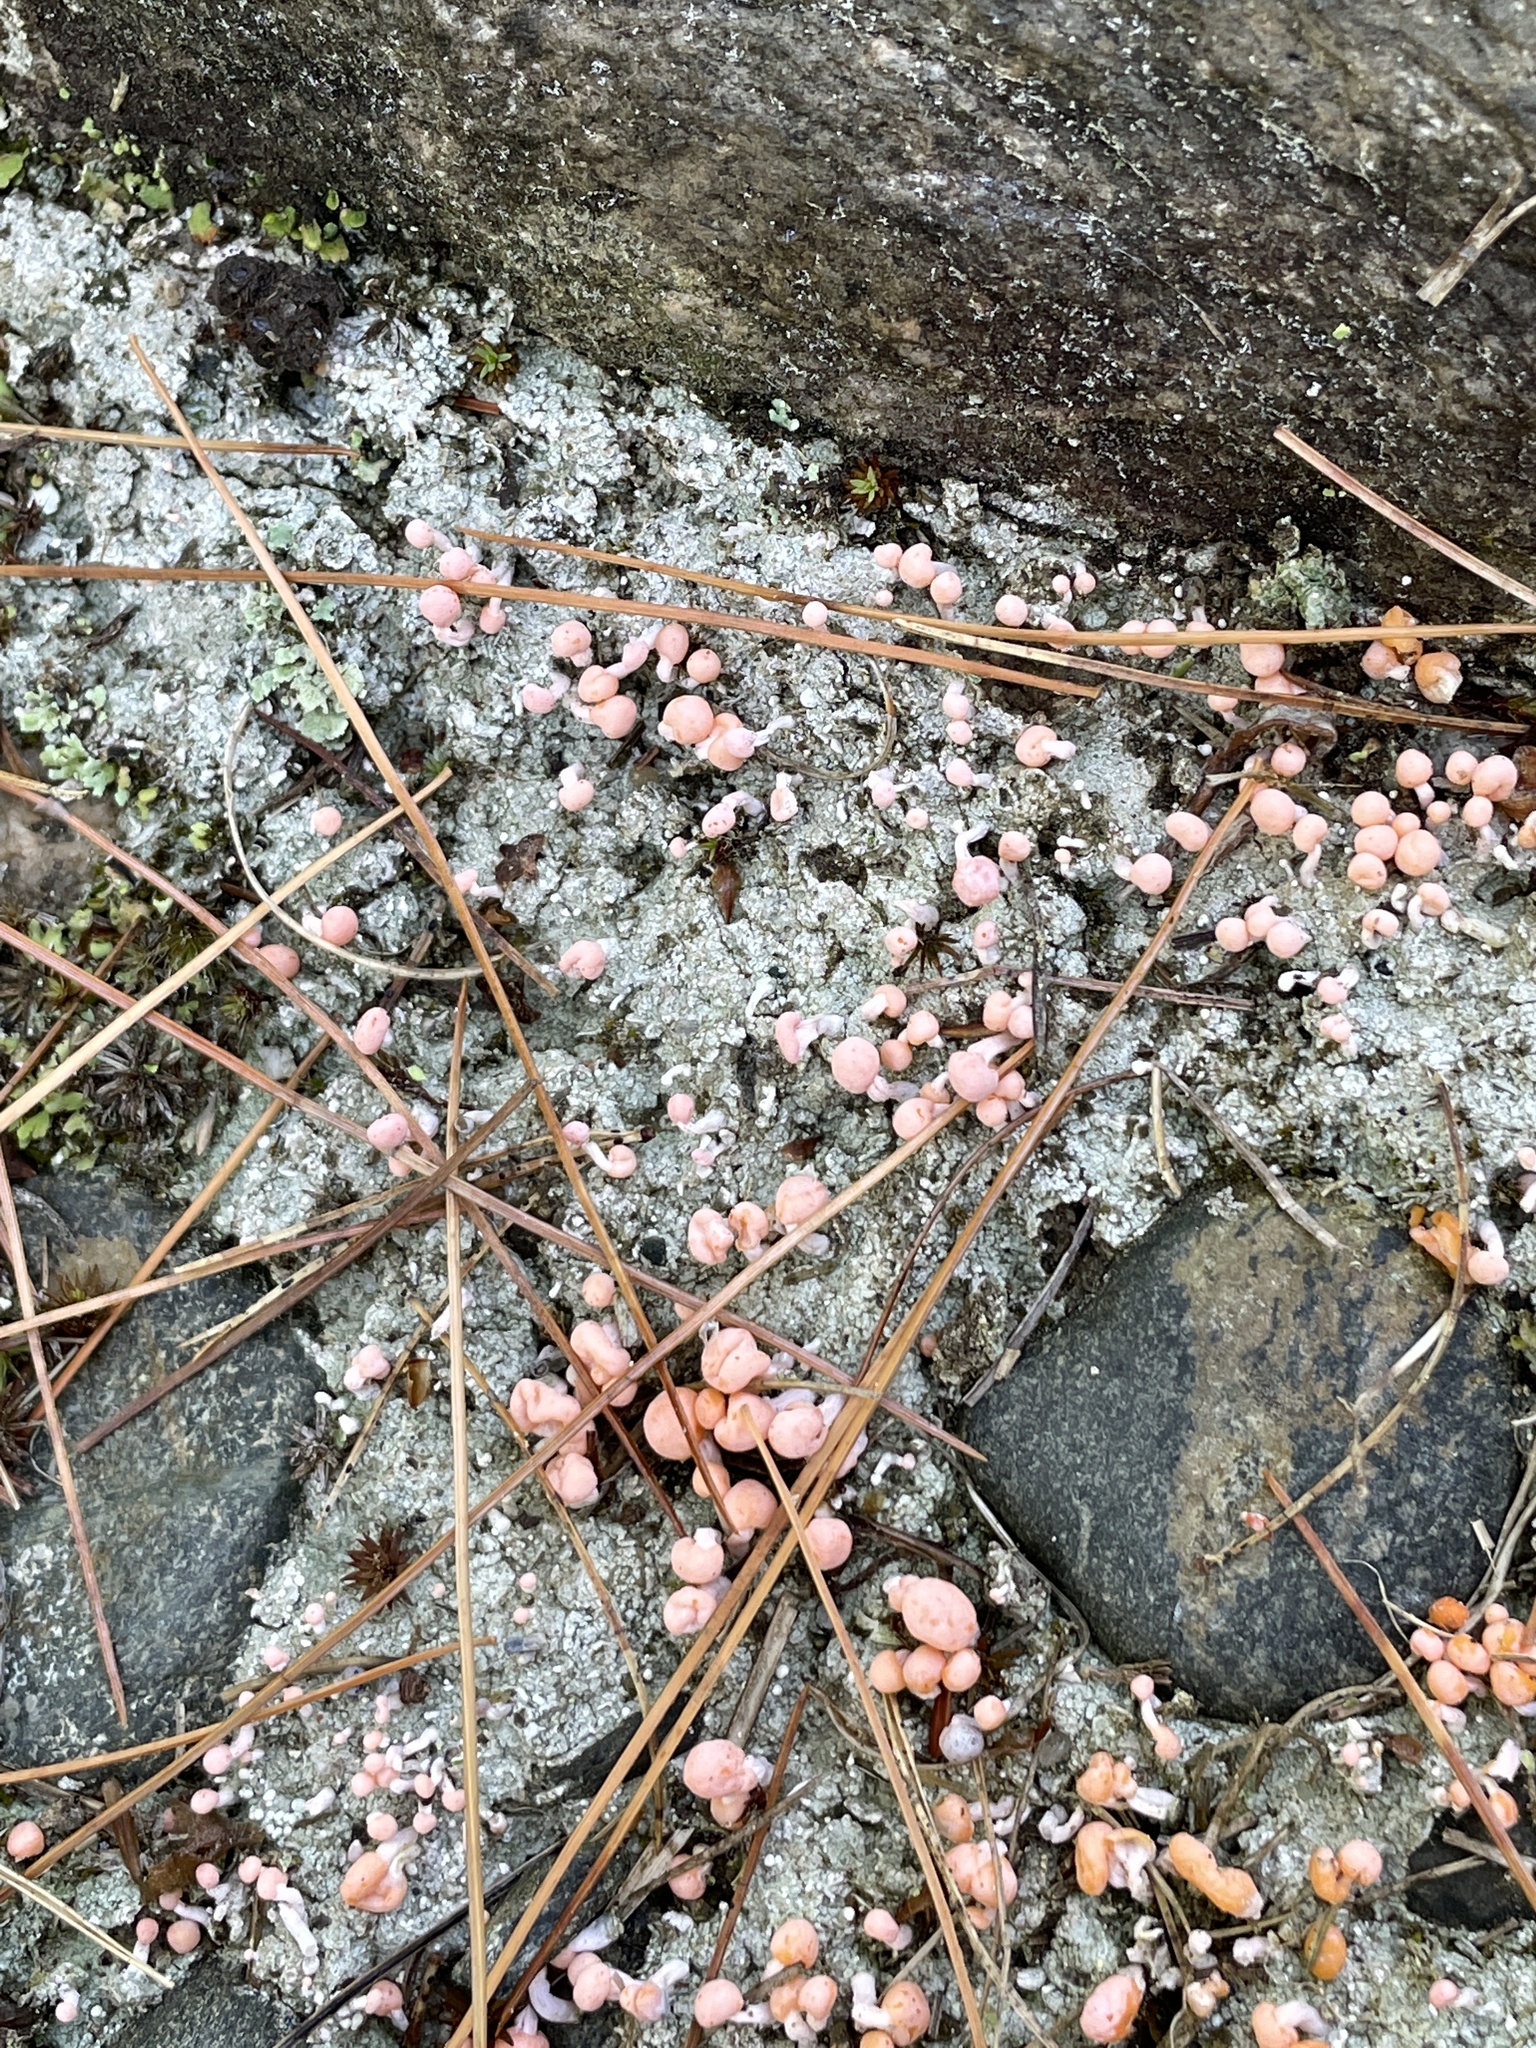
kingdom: Fungi
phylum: Ascomycota
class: Lecanoromycetes
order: Pertusariales
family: Icmadophilaceae
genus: Dibaeis
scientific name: Dibaeis baeomyces
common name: Pink earth lichen
